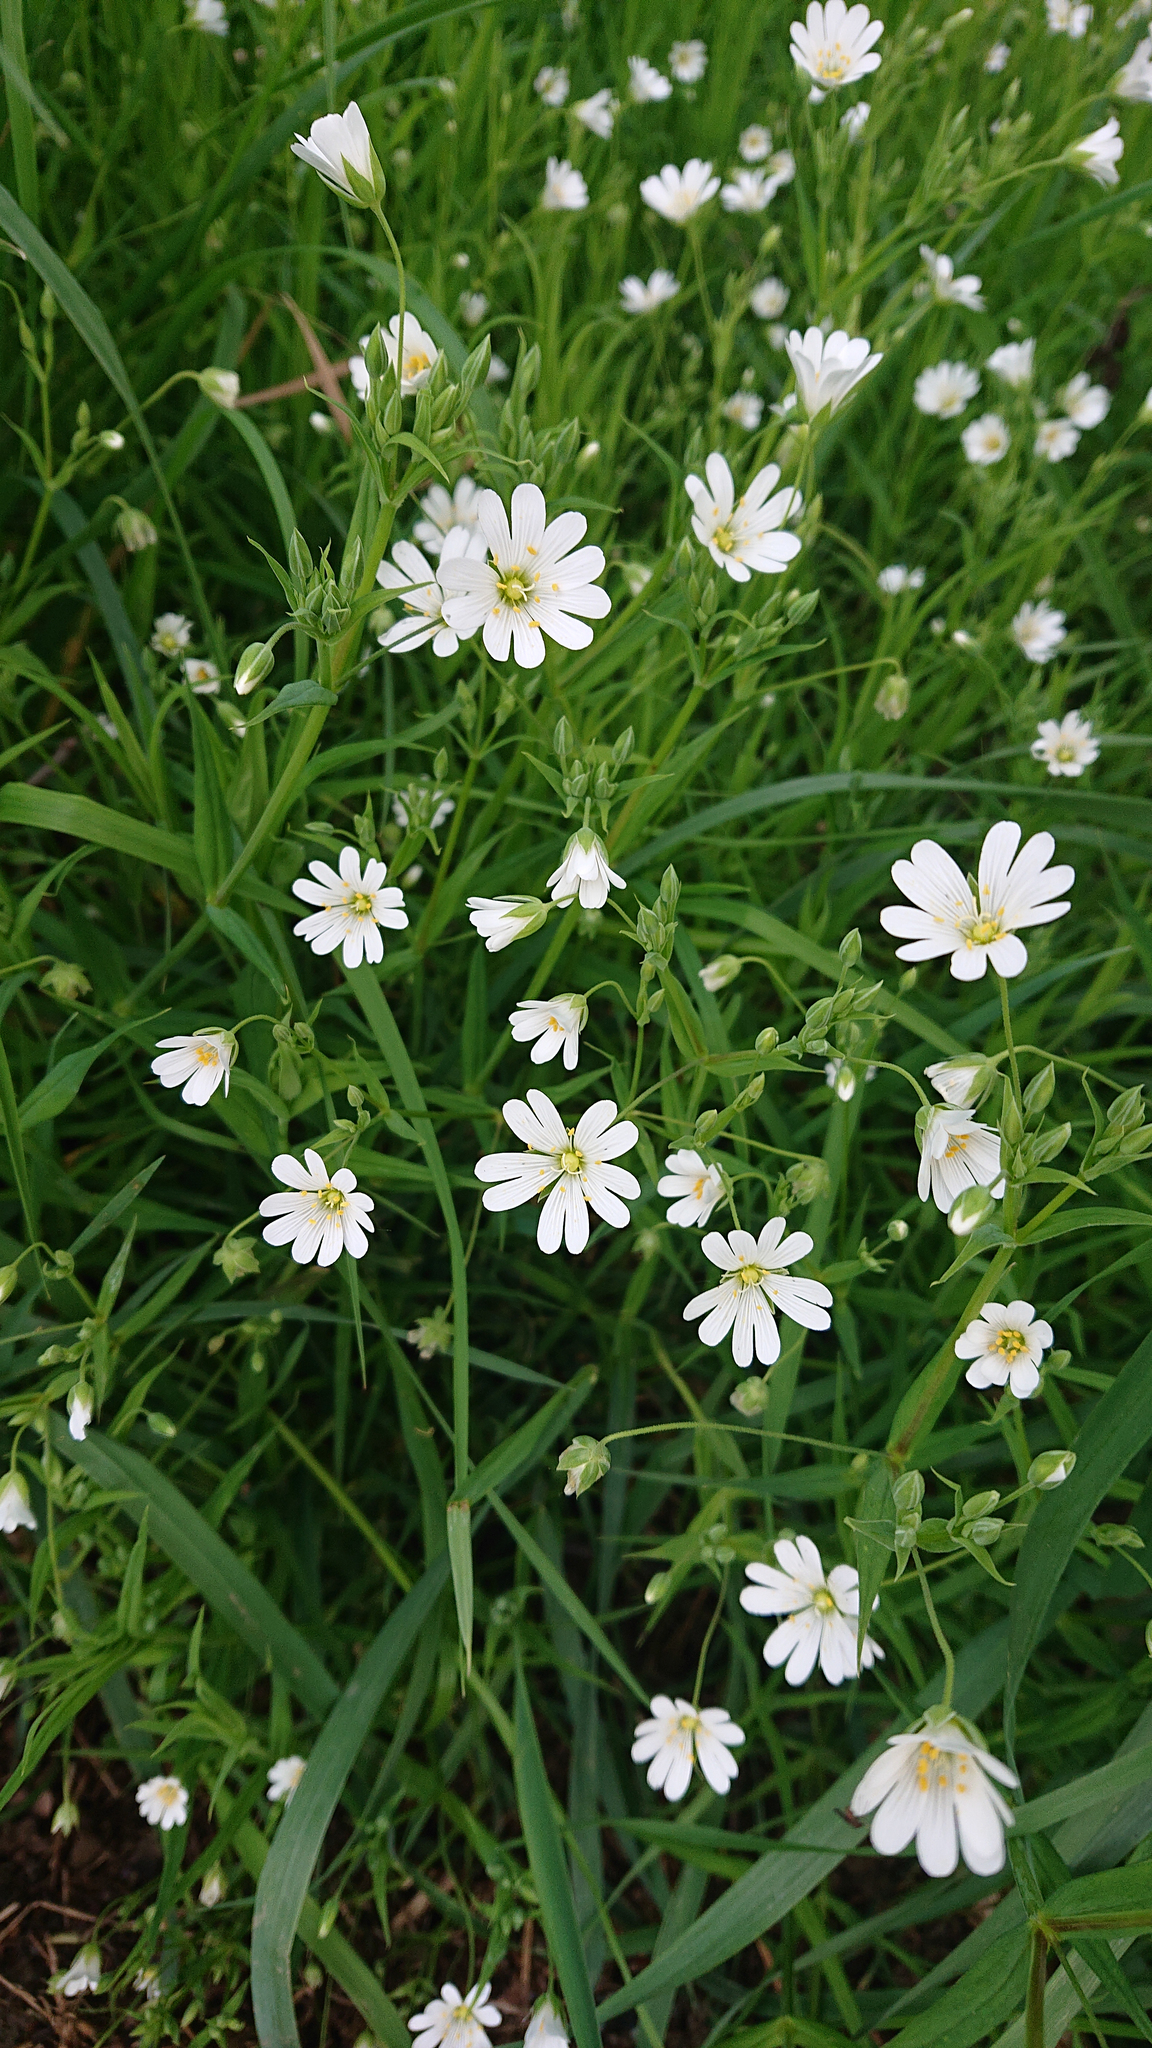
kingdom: Plantae
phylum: Tracheophyta
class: Magnoliopsida
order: Caryophyllales
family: Caryophyllaceae
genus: Rabelera
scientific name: Rabelera holostea
